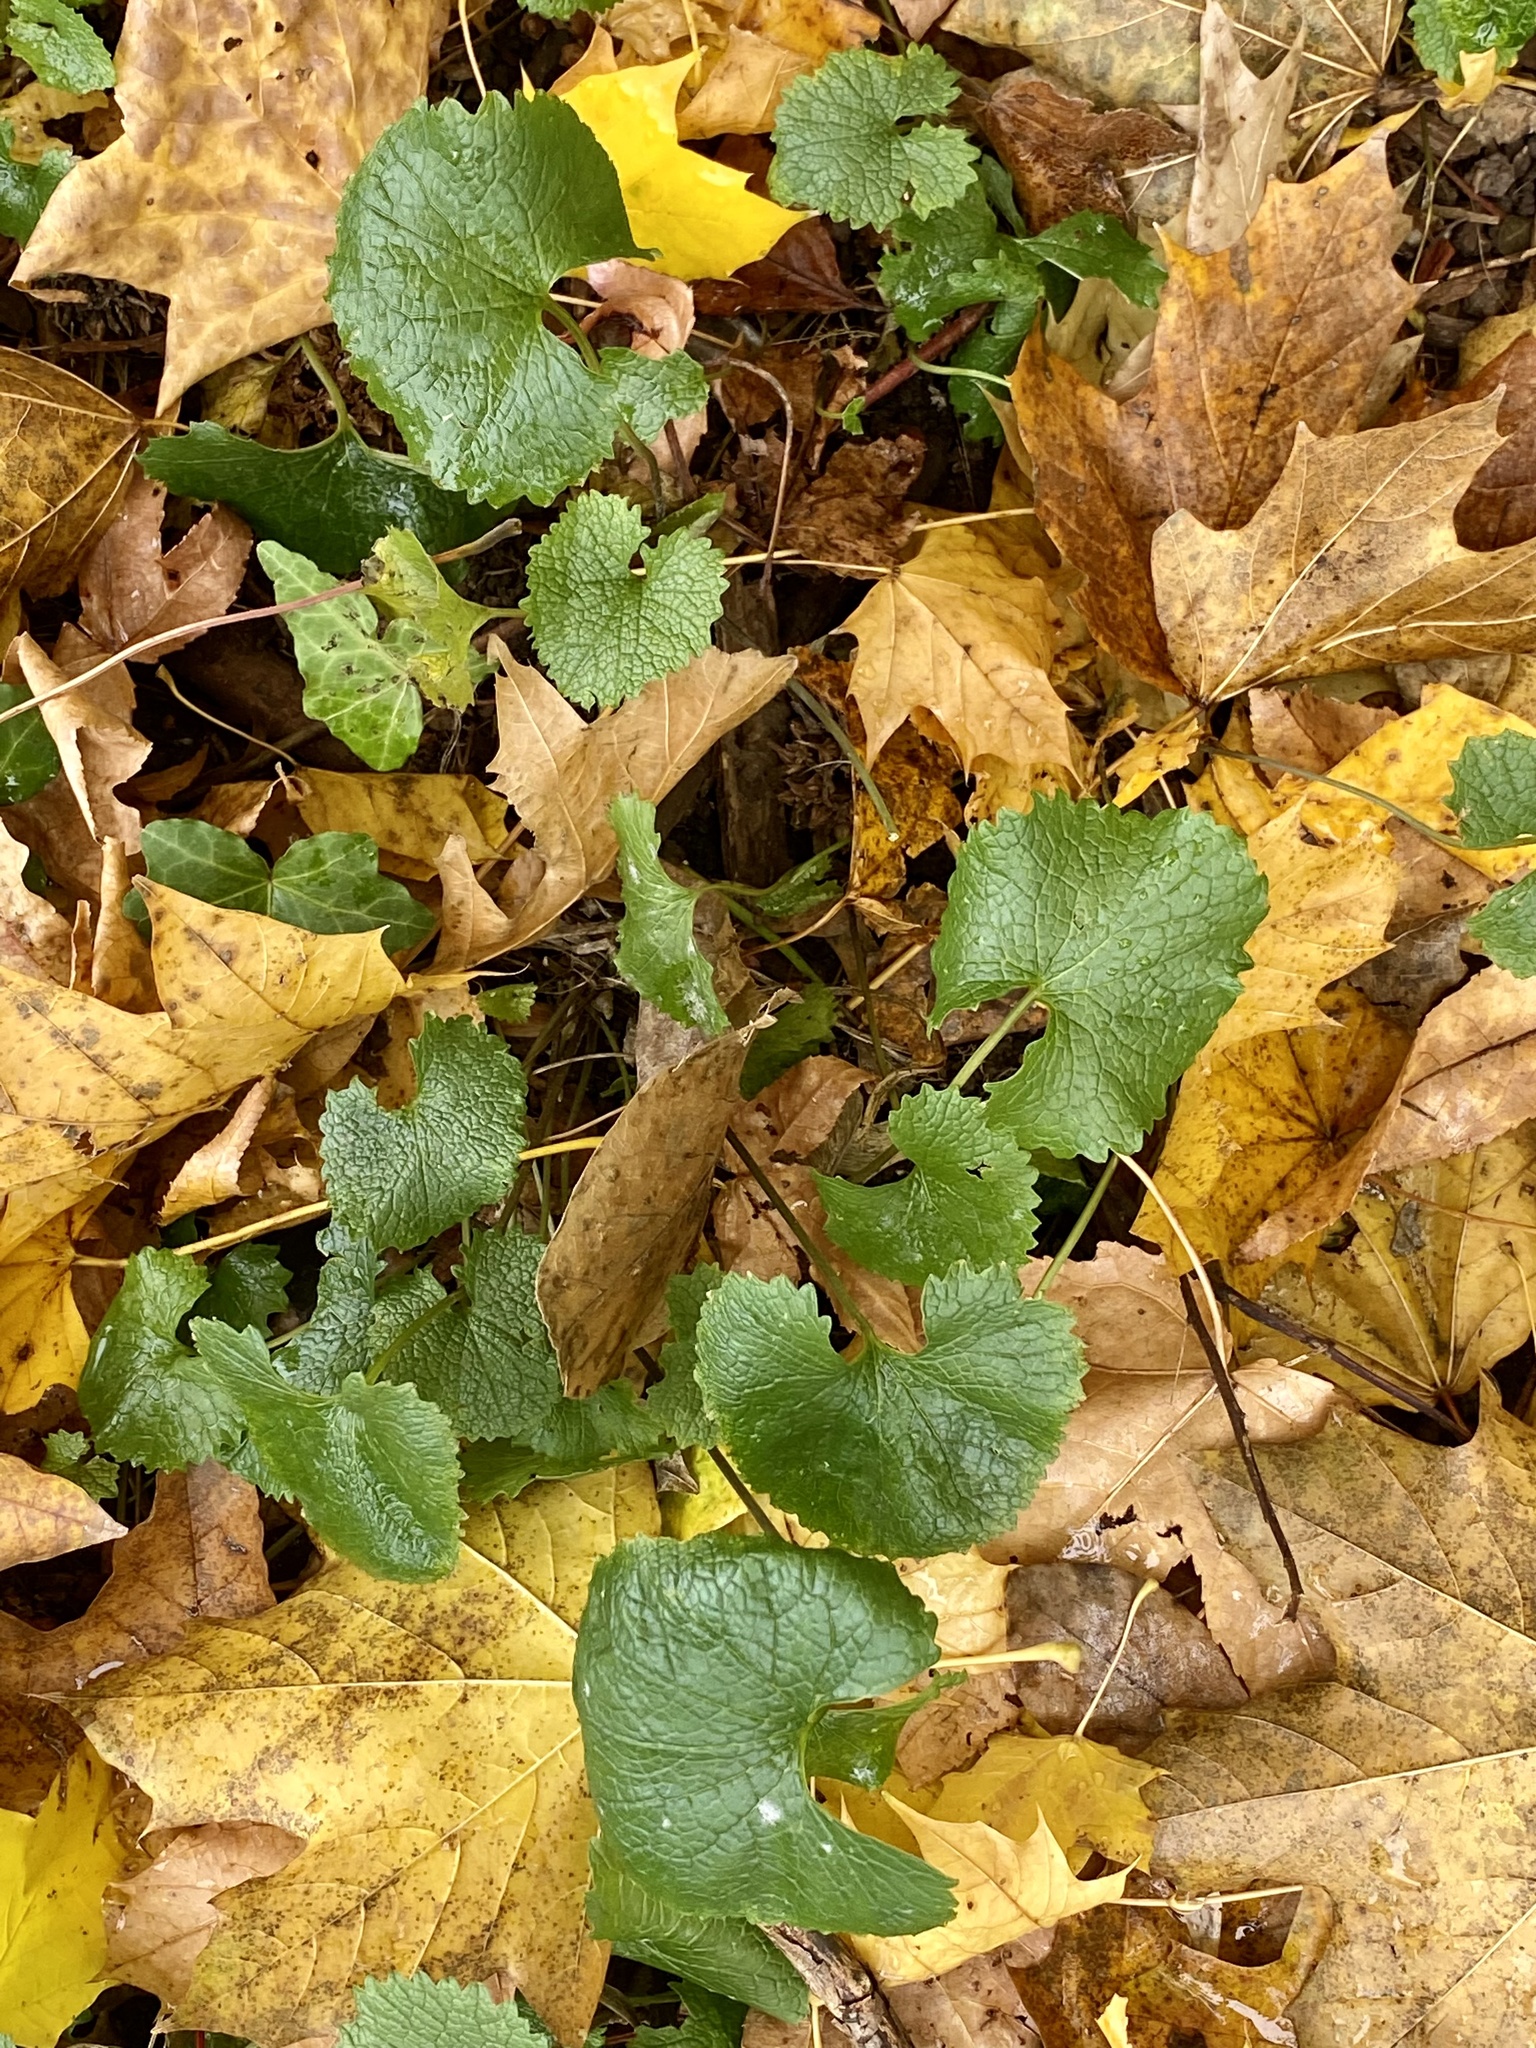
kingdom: Plantae
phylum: Tracheophyta
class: Magnoliopsida
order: Brassicales
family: Brassicaceae
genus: Alliaria
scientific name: Alliaria petiolata
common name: Garlic mustard
